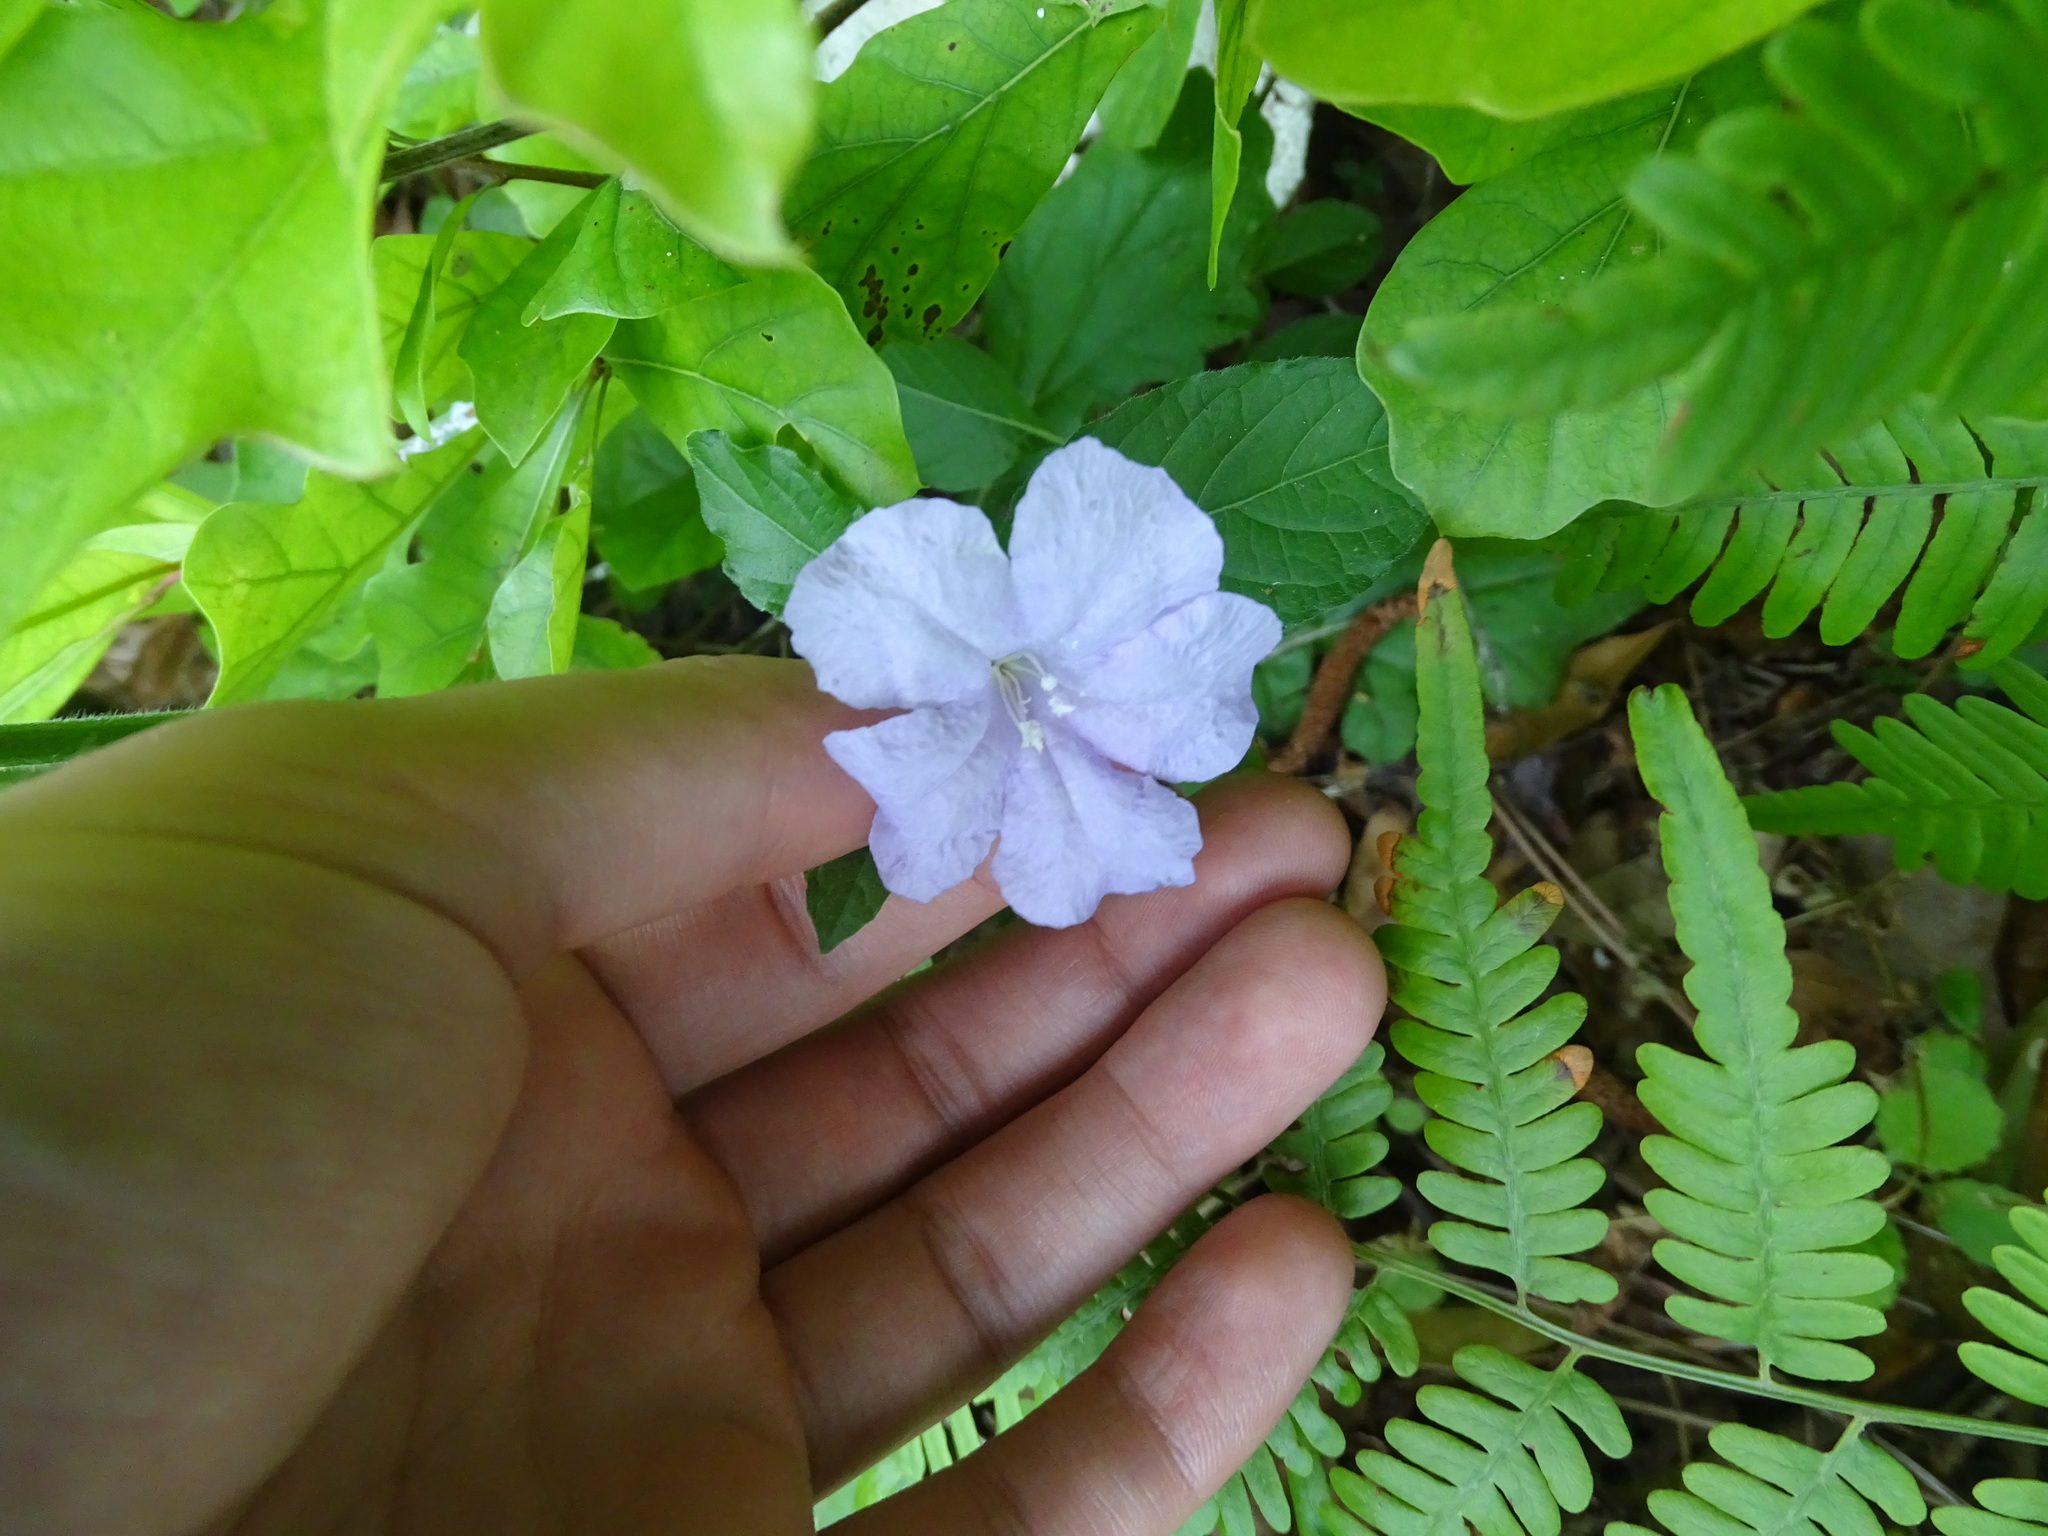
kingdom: Plantae
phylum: Tracheophyta
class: Magnoliopsida
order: Lamiales
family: Acanthaceae
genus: Ruellia
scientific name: Ruellia caroliniensis
